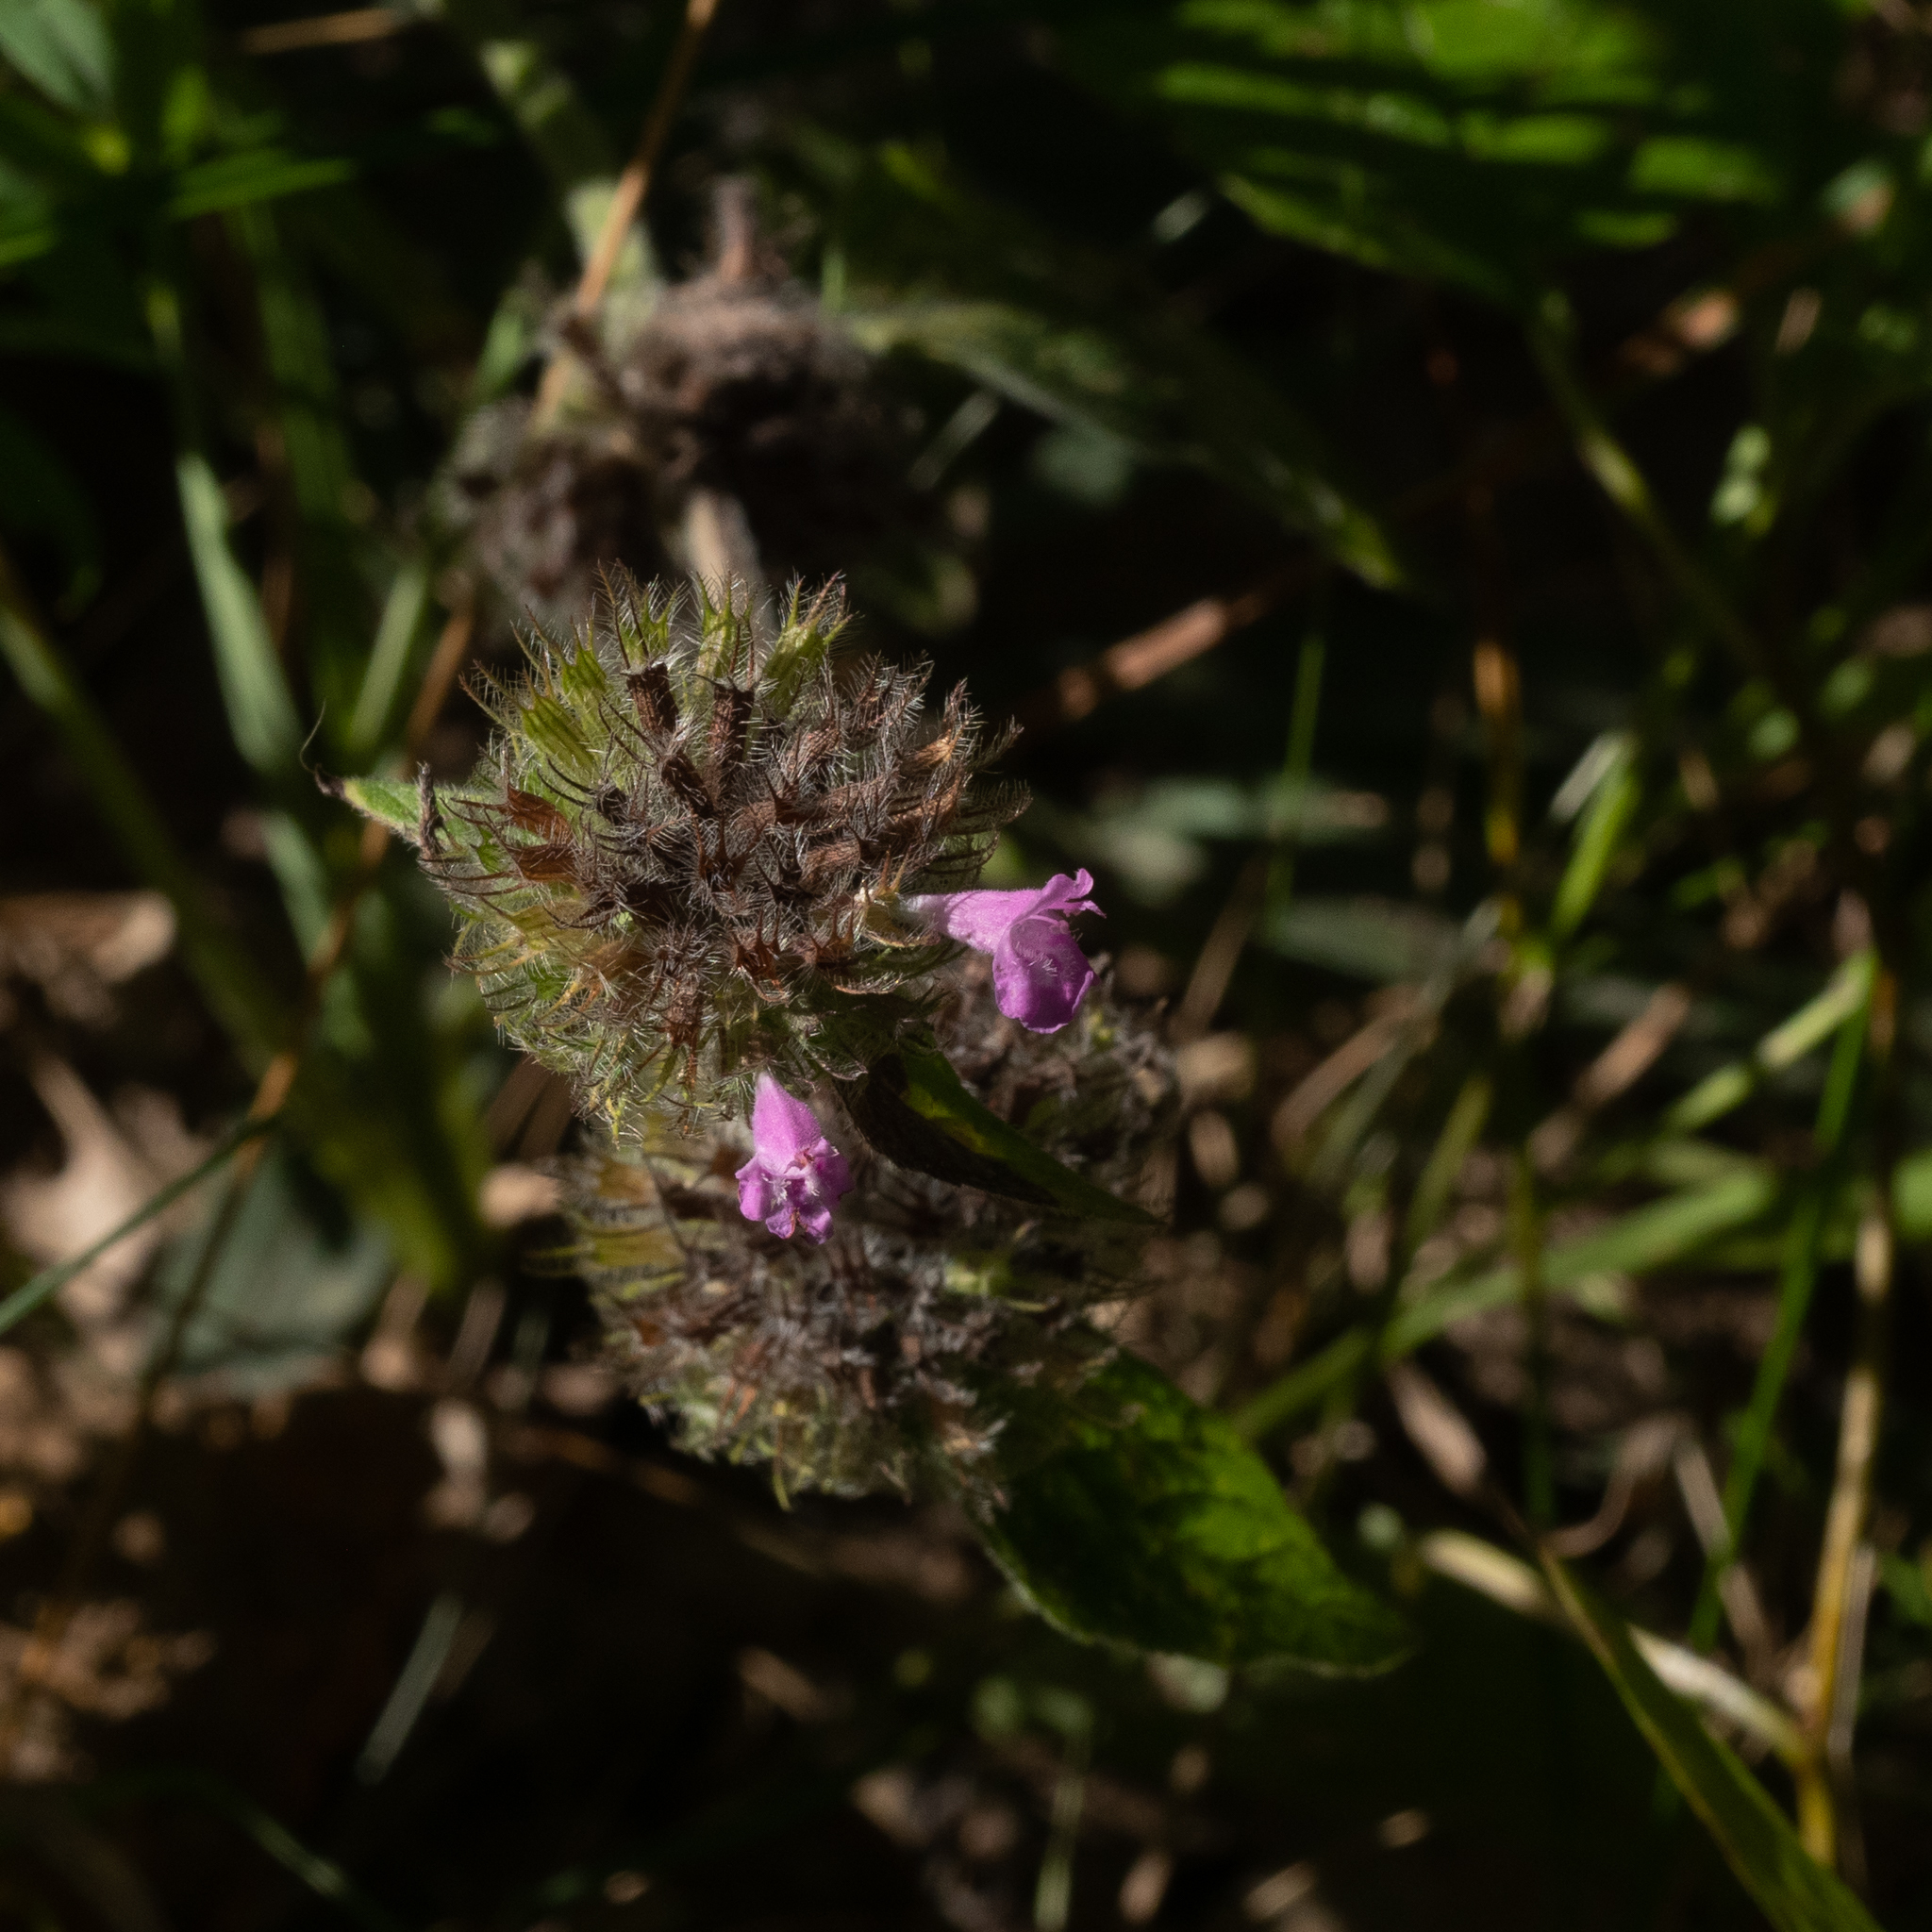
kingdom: Plantae
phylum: Tracheophyta
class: Magnoliopsida
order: Lamiales
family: Lamiaceae
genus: Clinopodium
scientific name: Clinopodium vulgare
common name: Wild basil
